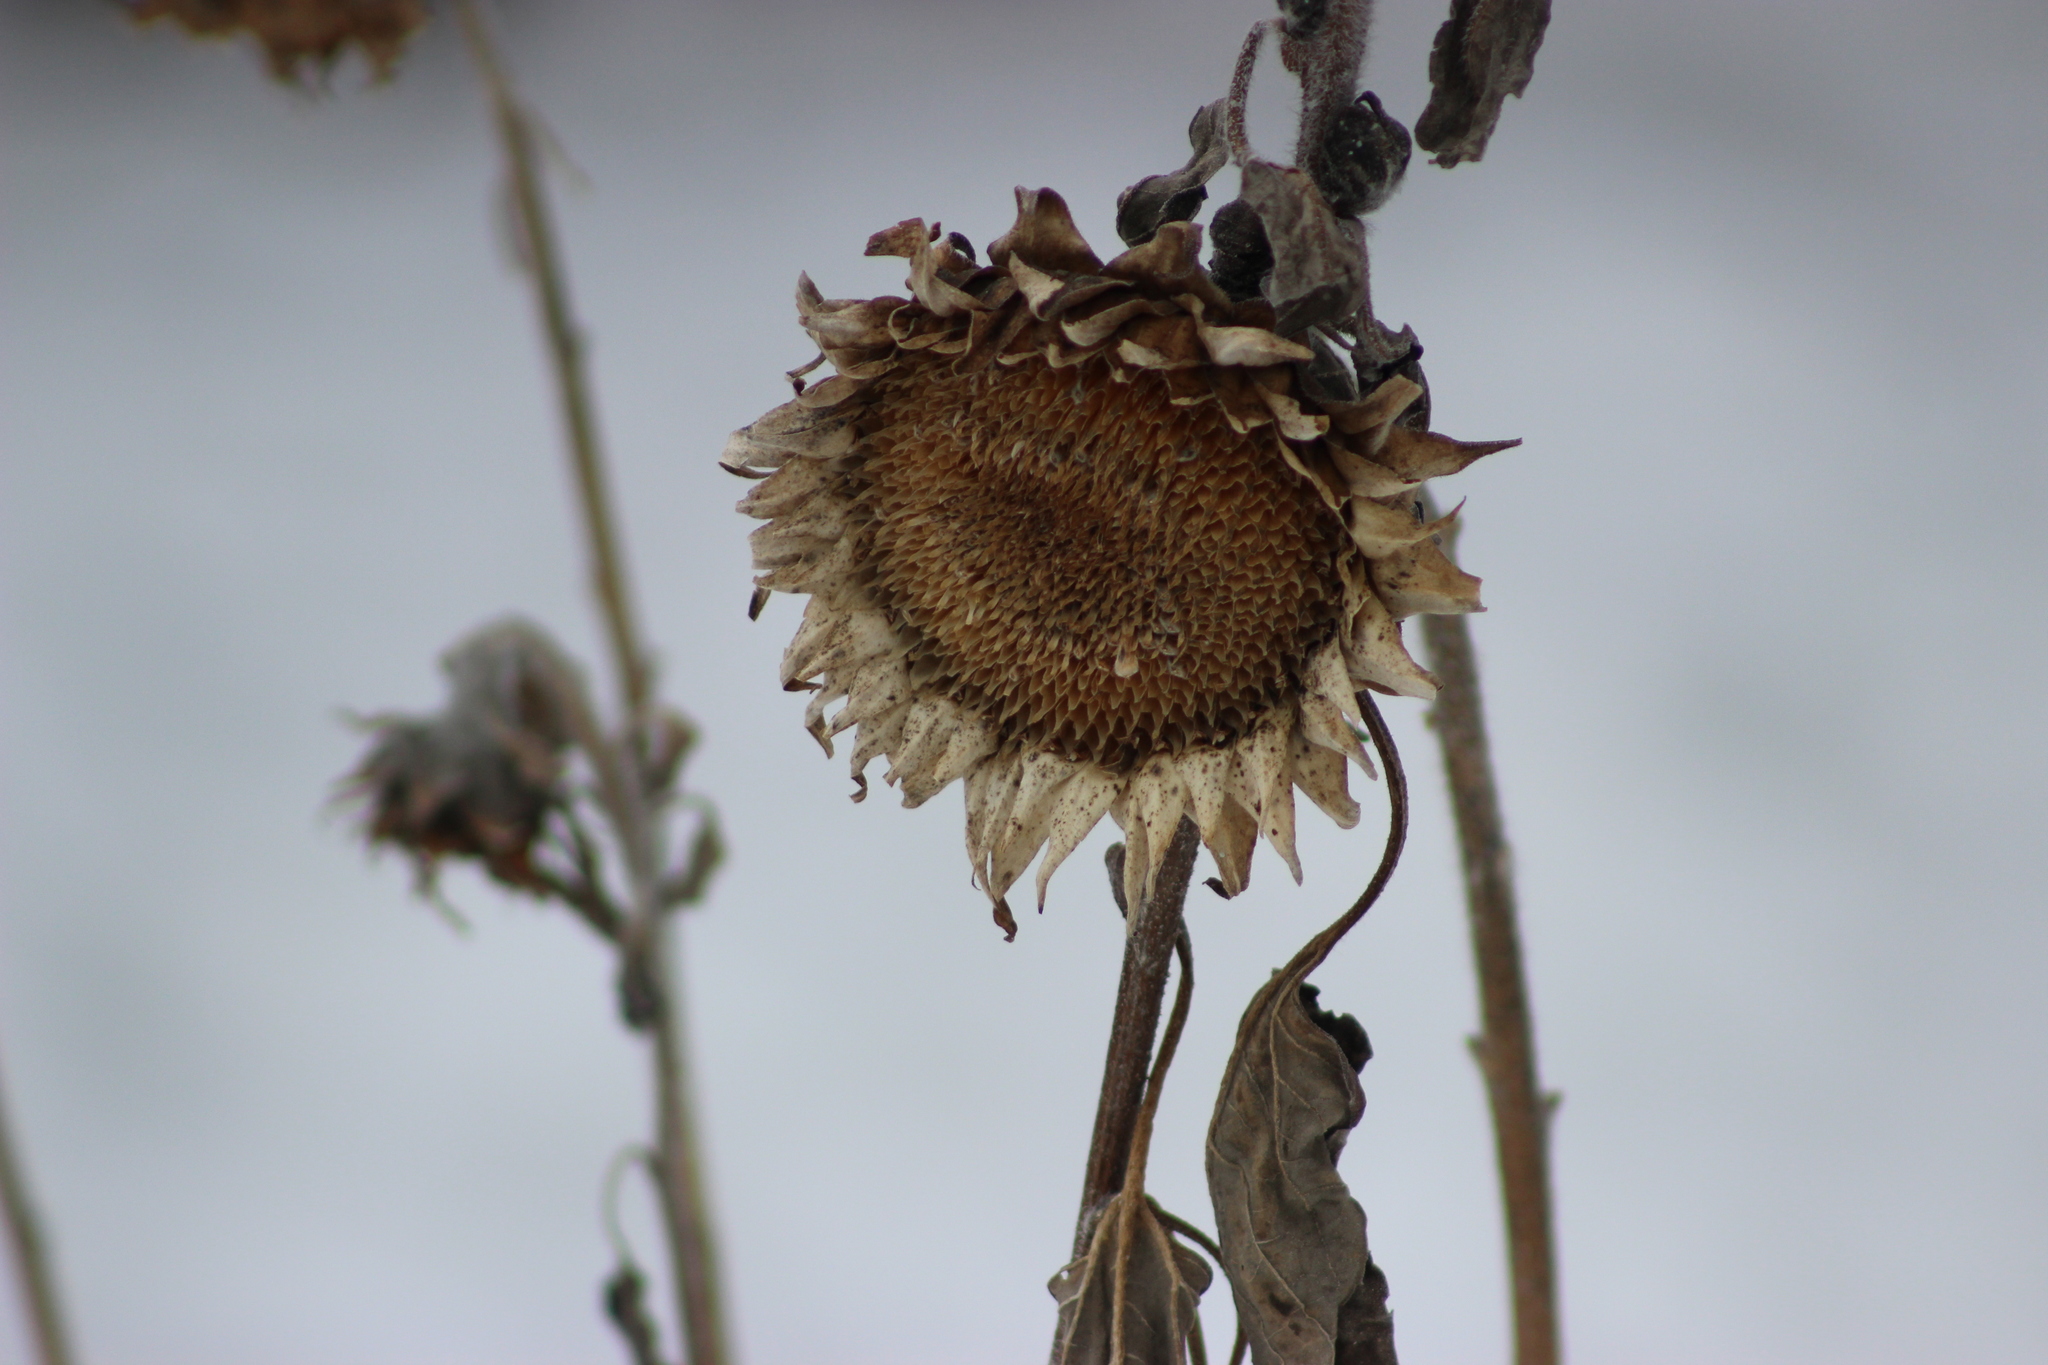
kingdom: Plantae
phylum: Tracheophyta
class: Magnoliopsida
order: Asterales
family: Asteraceae
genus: Helianthus
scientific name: Helianthus annuus
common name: Sunflower
